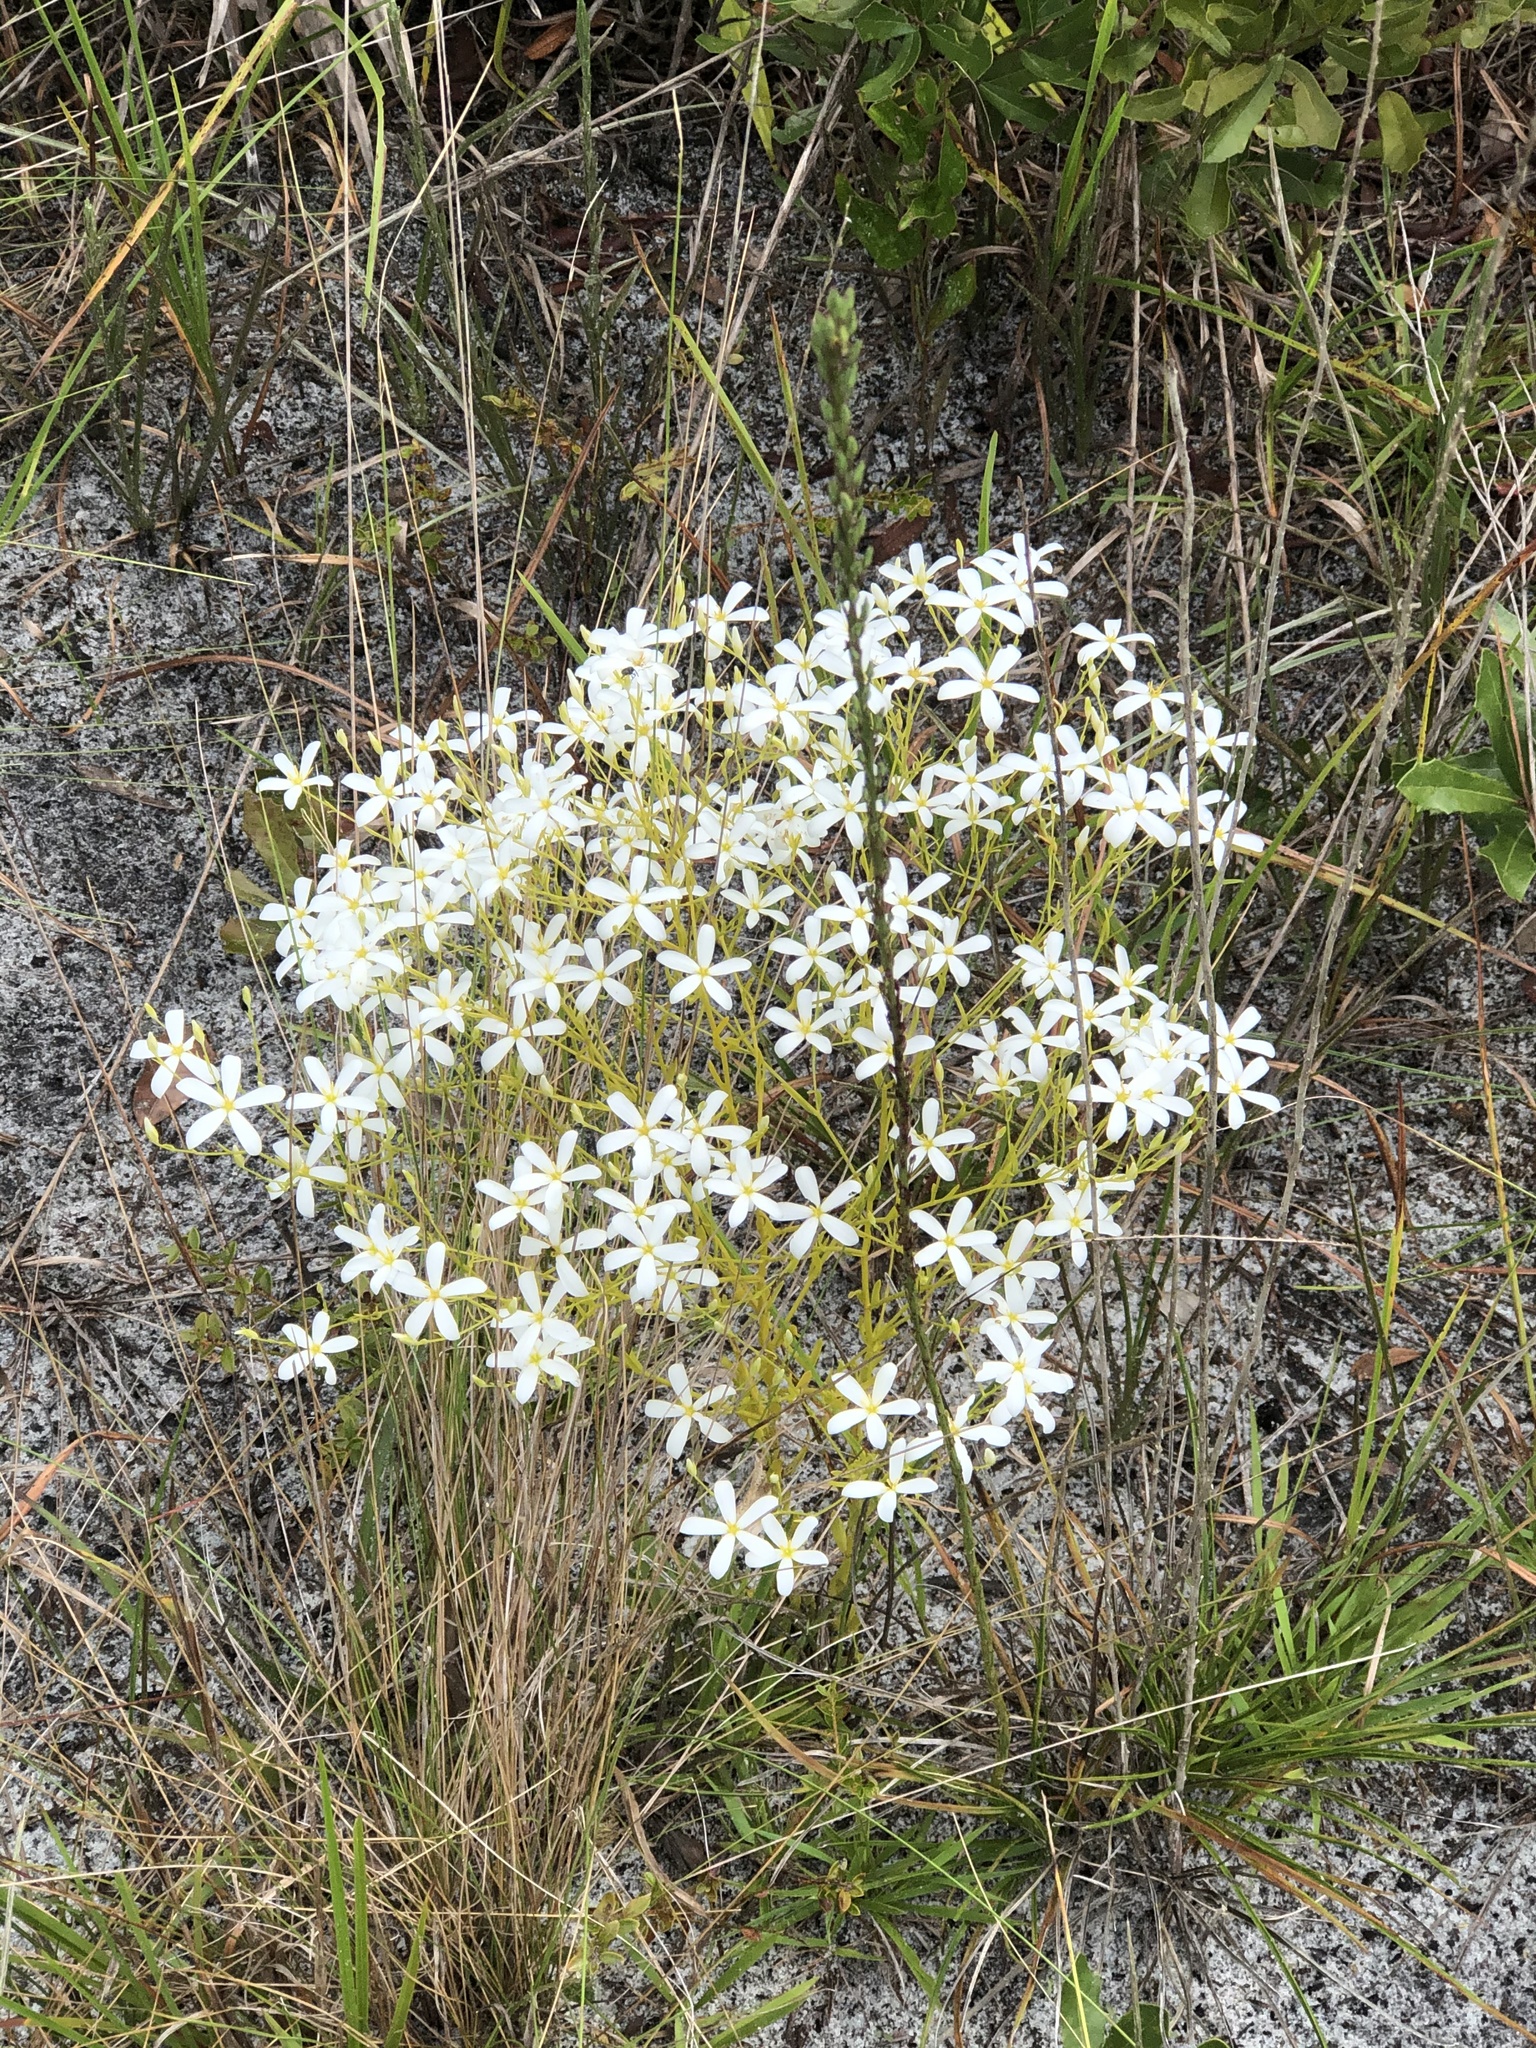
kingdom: Plantae
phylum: Tracheophyta
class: Magnoliopsida
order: Gentianales
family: Gentianaceae
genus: Sabatia
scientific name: Sabatia brevifolia
